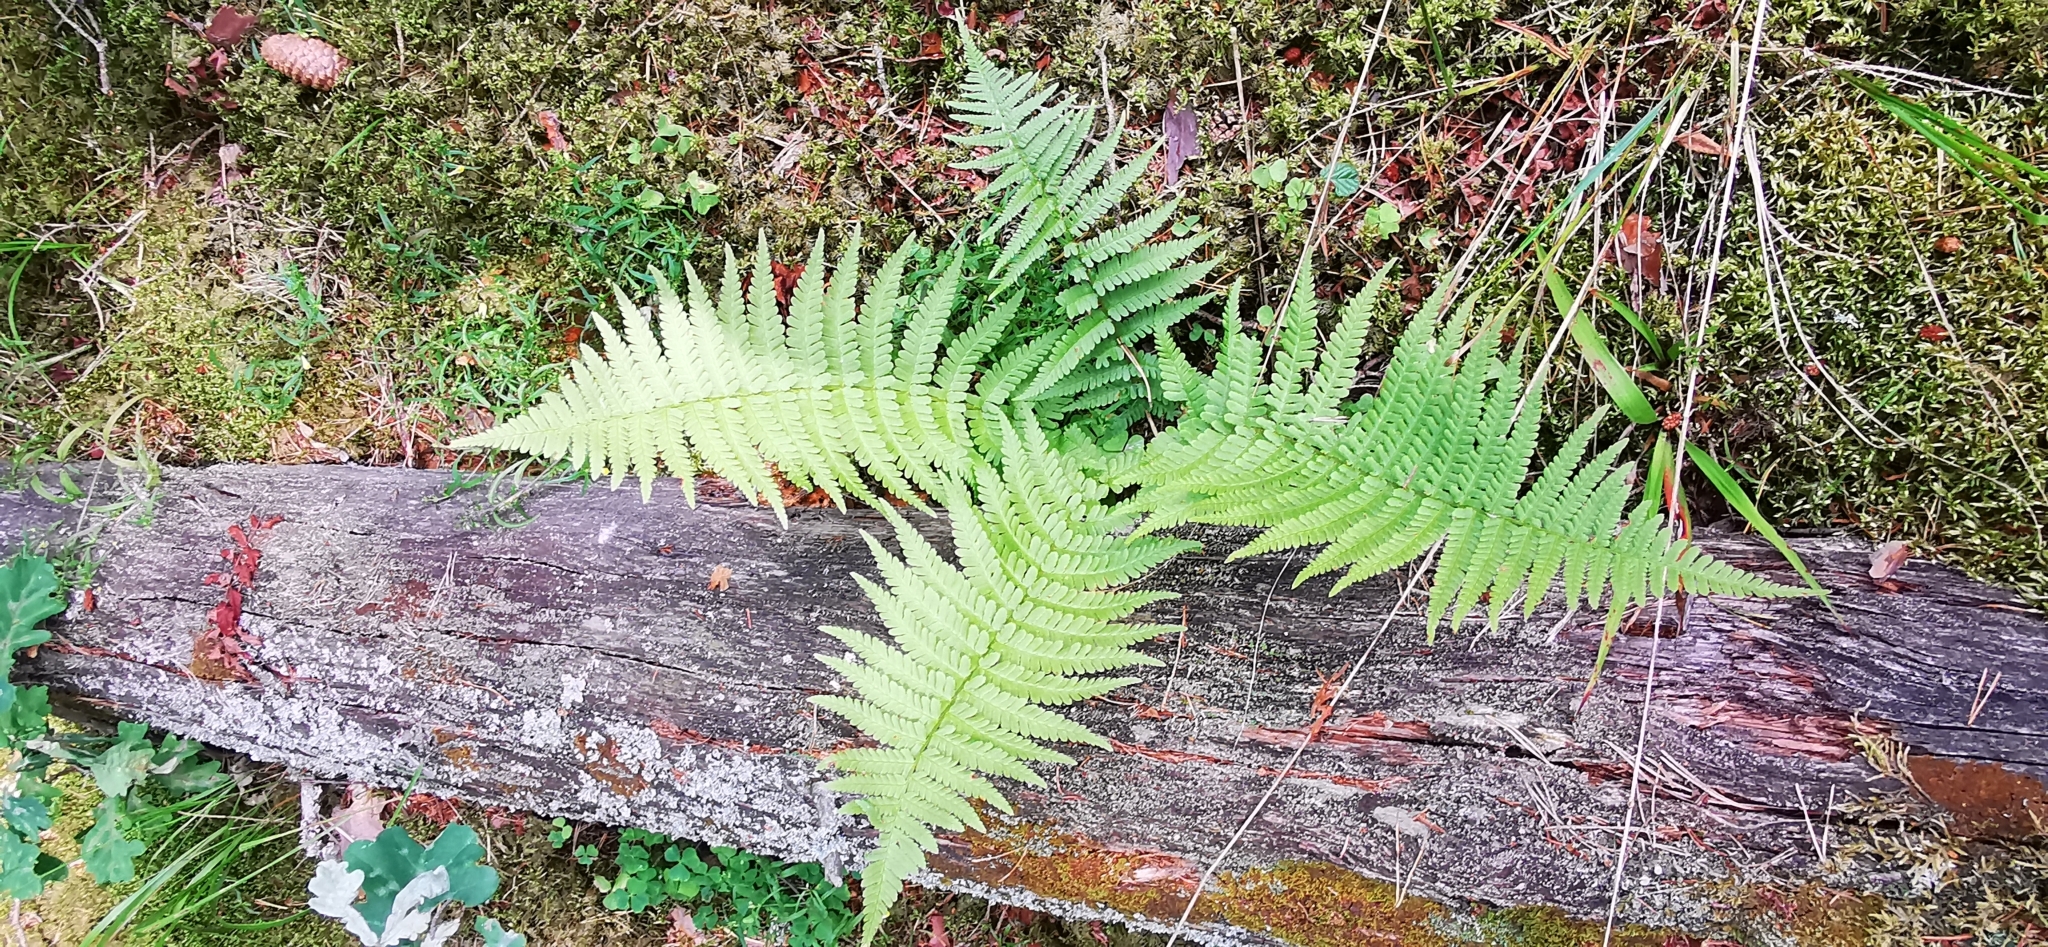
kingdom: Plantae
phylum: Tracheophyta
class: Polypodiopsida
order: Polypodiales
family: Dryopteridaceae
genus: Dryopteris
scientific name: Dryopteris filix-mas
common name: Male fern
